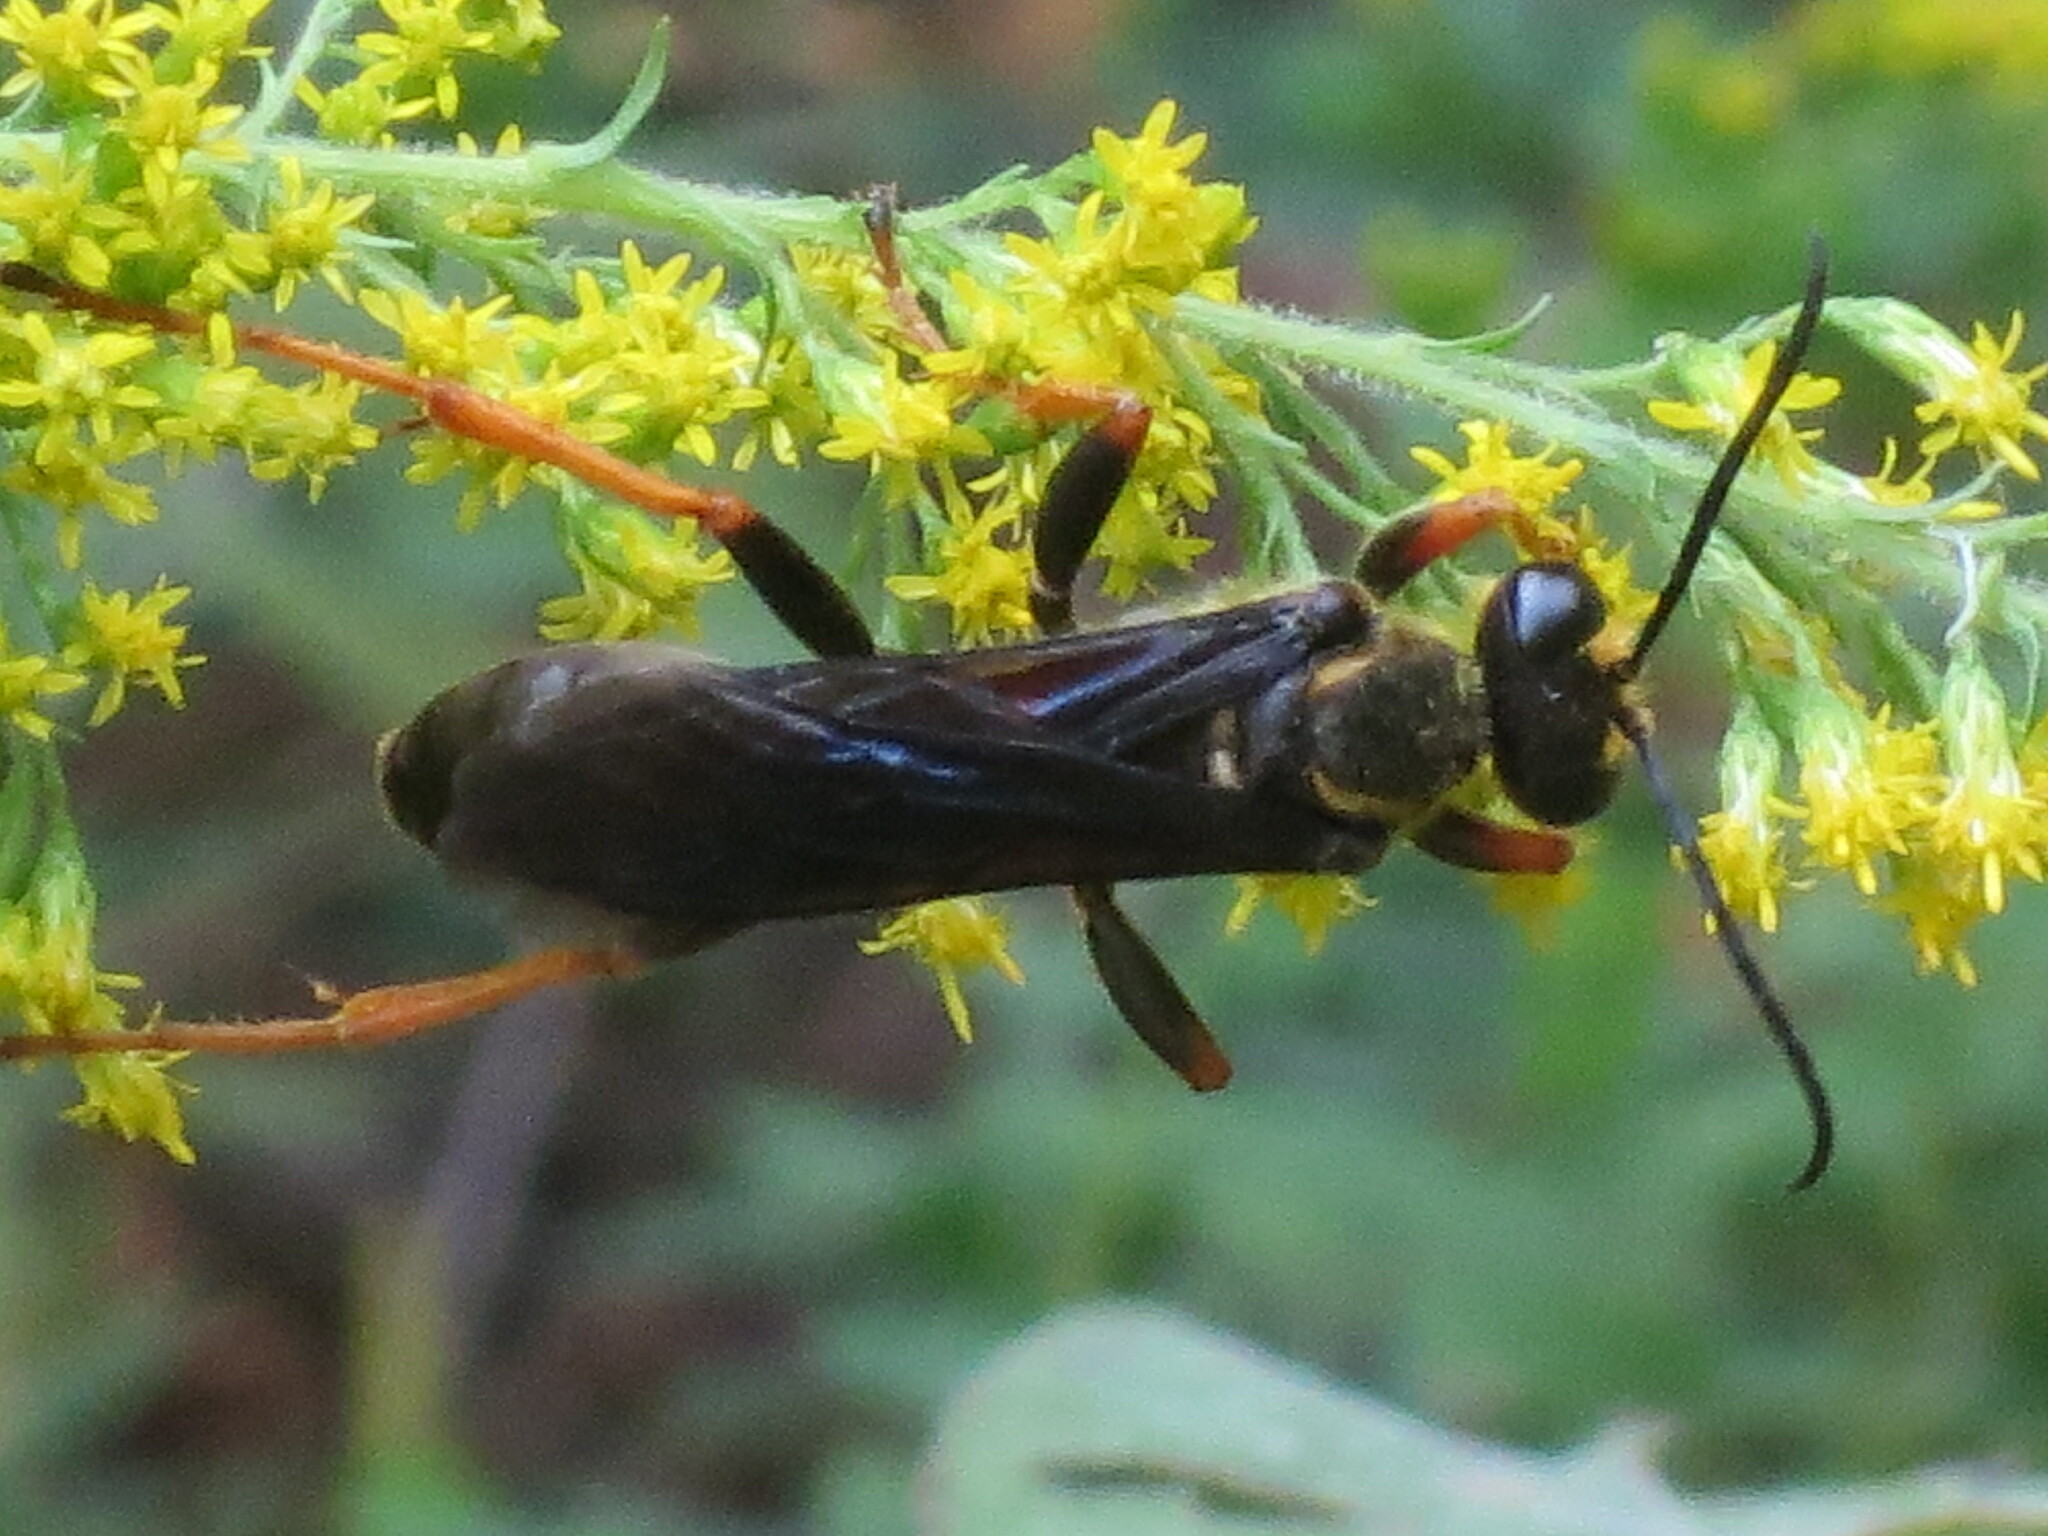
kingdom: Animalia
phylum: Arthropoda
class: Insecta
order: Hymenoptera
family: Sphecidae
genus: Sphex
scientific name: Sphex flavovestitus
